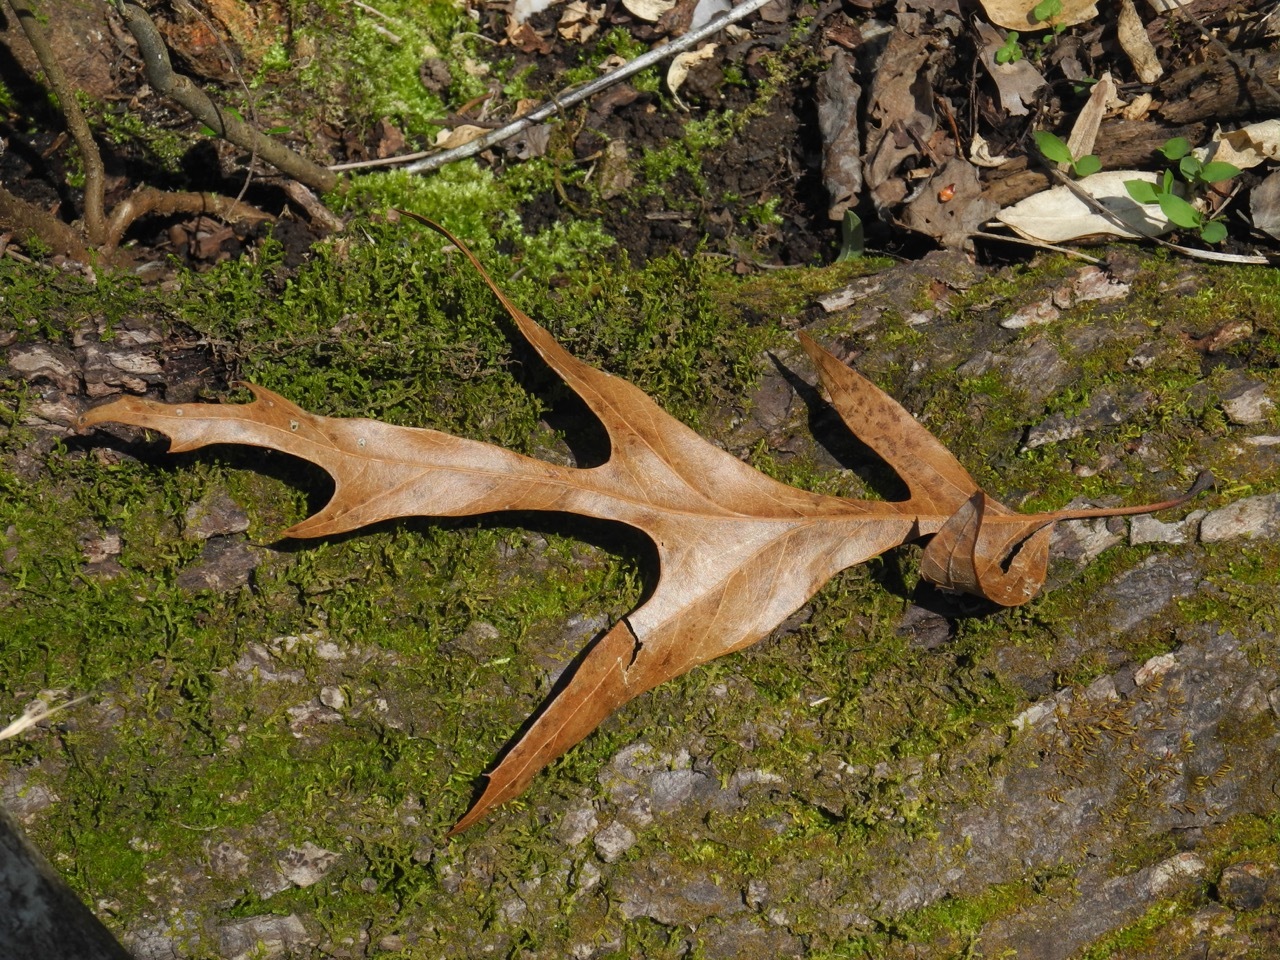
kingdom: Plantae
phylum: Tracheophyta
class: Magnoliopsida
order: Fagales
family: Fagaceae
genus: Quercus
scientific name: Quercus palustris
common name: Pin oak
